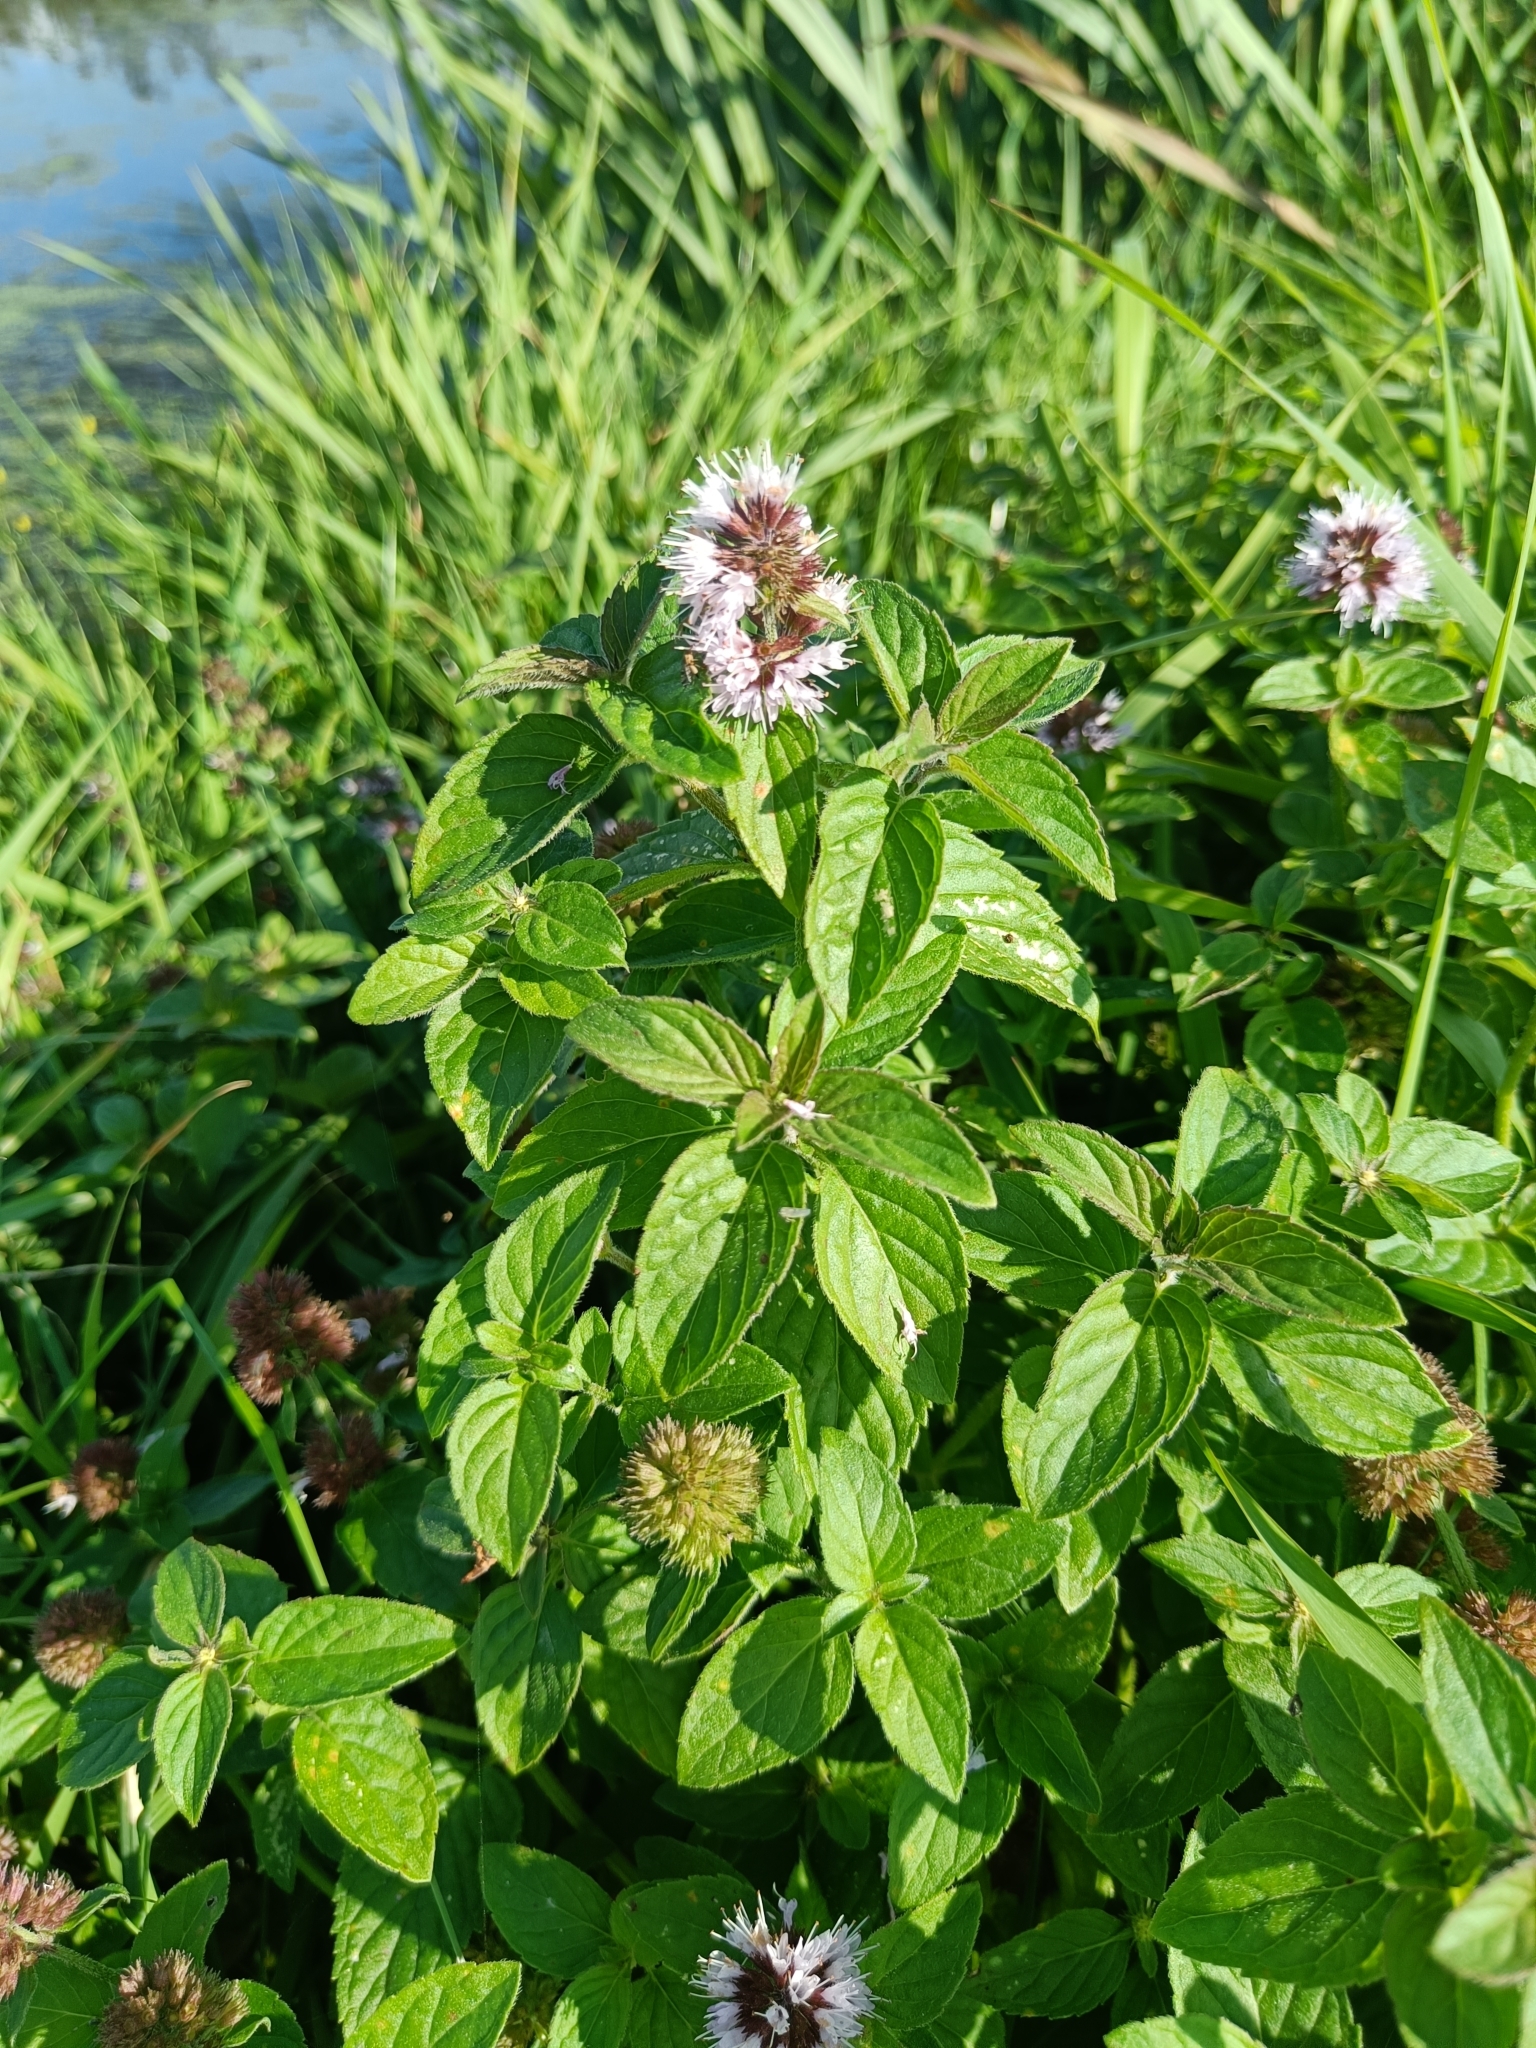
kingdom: Plantae
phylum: Tracheophyta
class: Magnoliopsida
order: Lamiales
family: Lamiaceae
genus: Mentha
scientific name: Mentha aquatica
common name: Water mint
